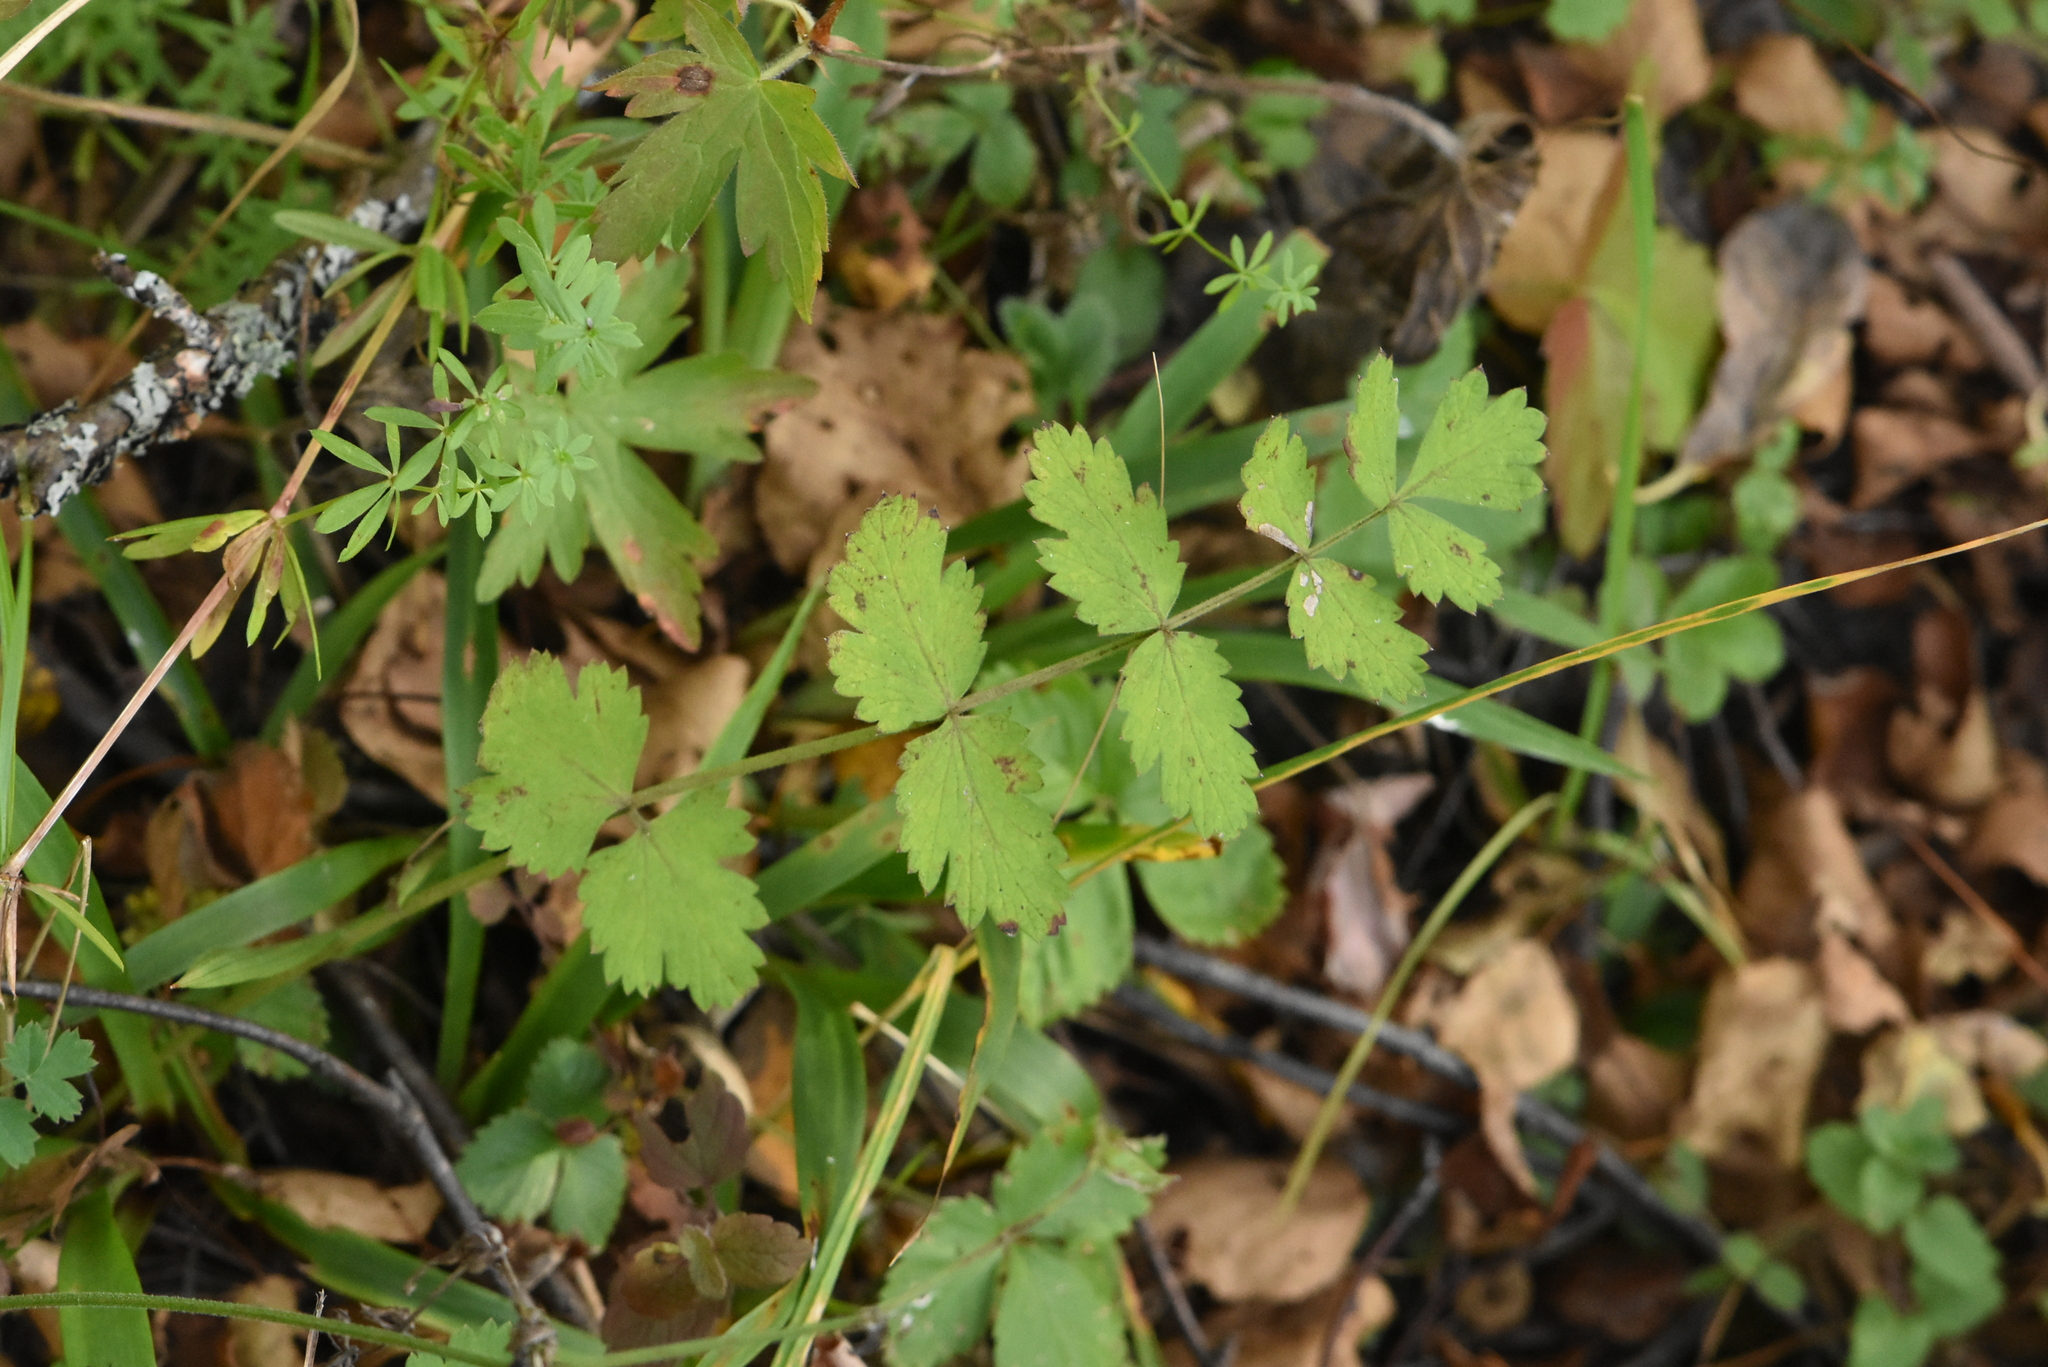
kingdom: Plantae
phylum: Tracheophyta
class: Magnoliopsida
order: Apiales
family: Apiaceae
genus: Pimpinella
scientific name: Pimpinella saxifraga
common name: Burnet-saxifrage
